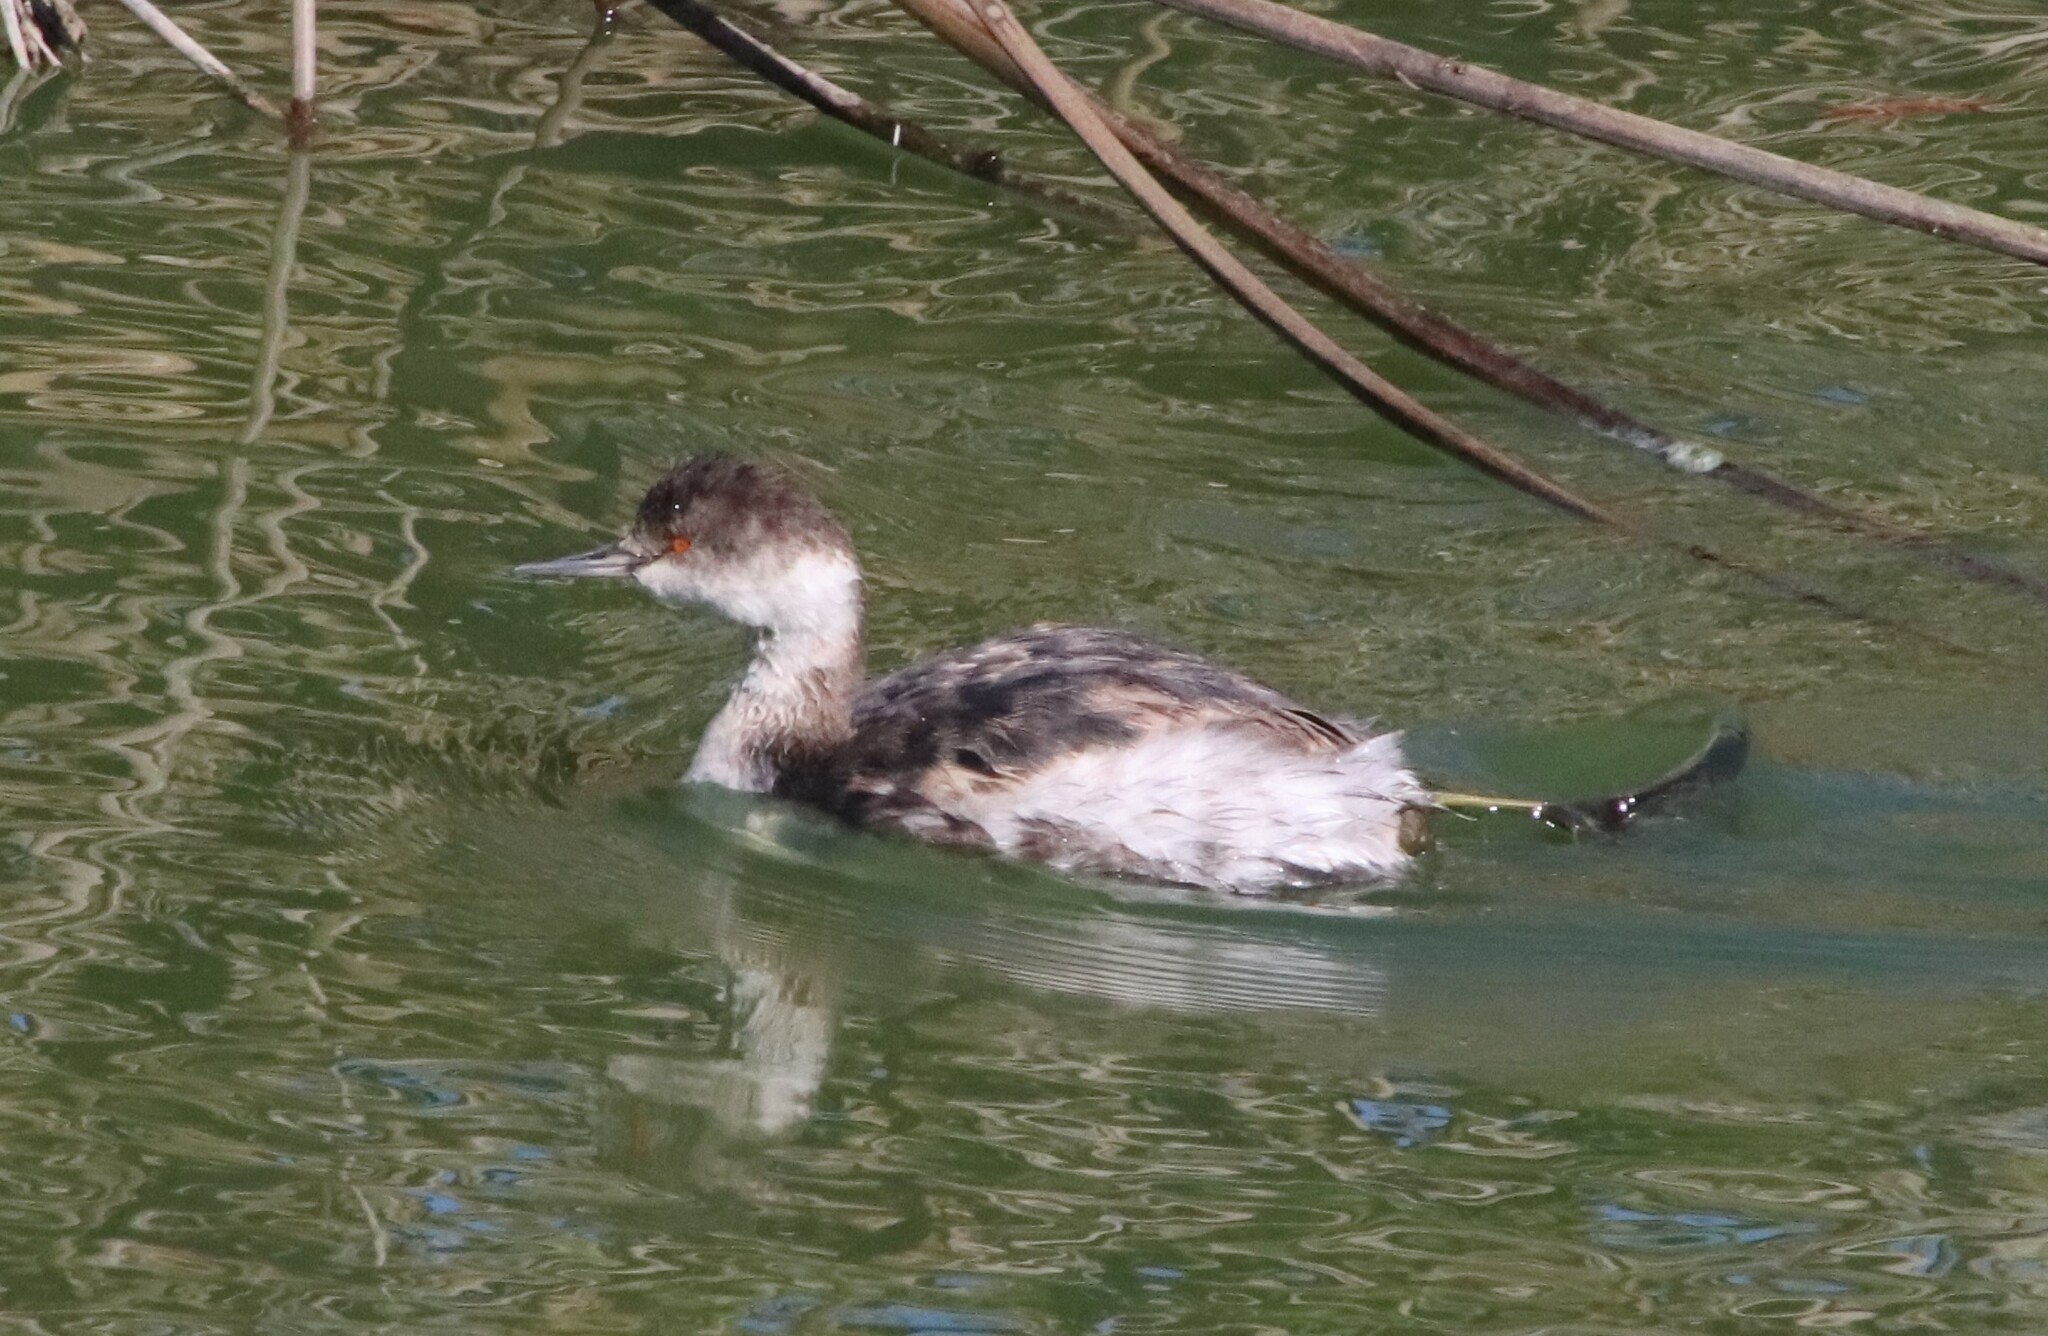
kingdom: Animalia
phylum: Chordata
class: Aves
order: Podicipediformes
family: Podicipedidae
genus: Podiceps
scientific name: Podiceps nigricollis
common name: Black-necked grebe
